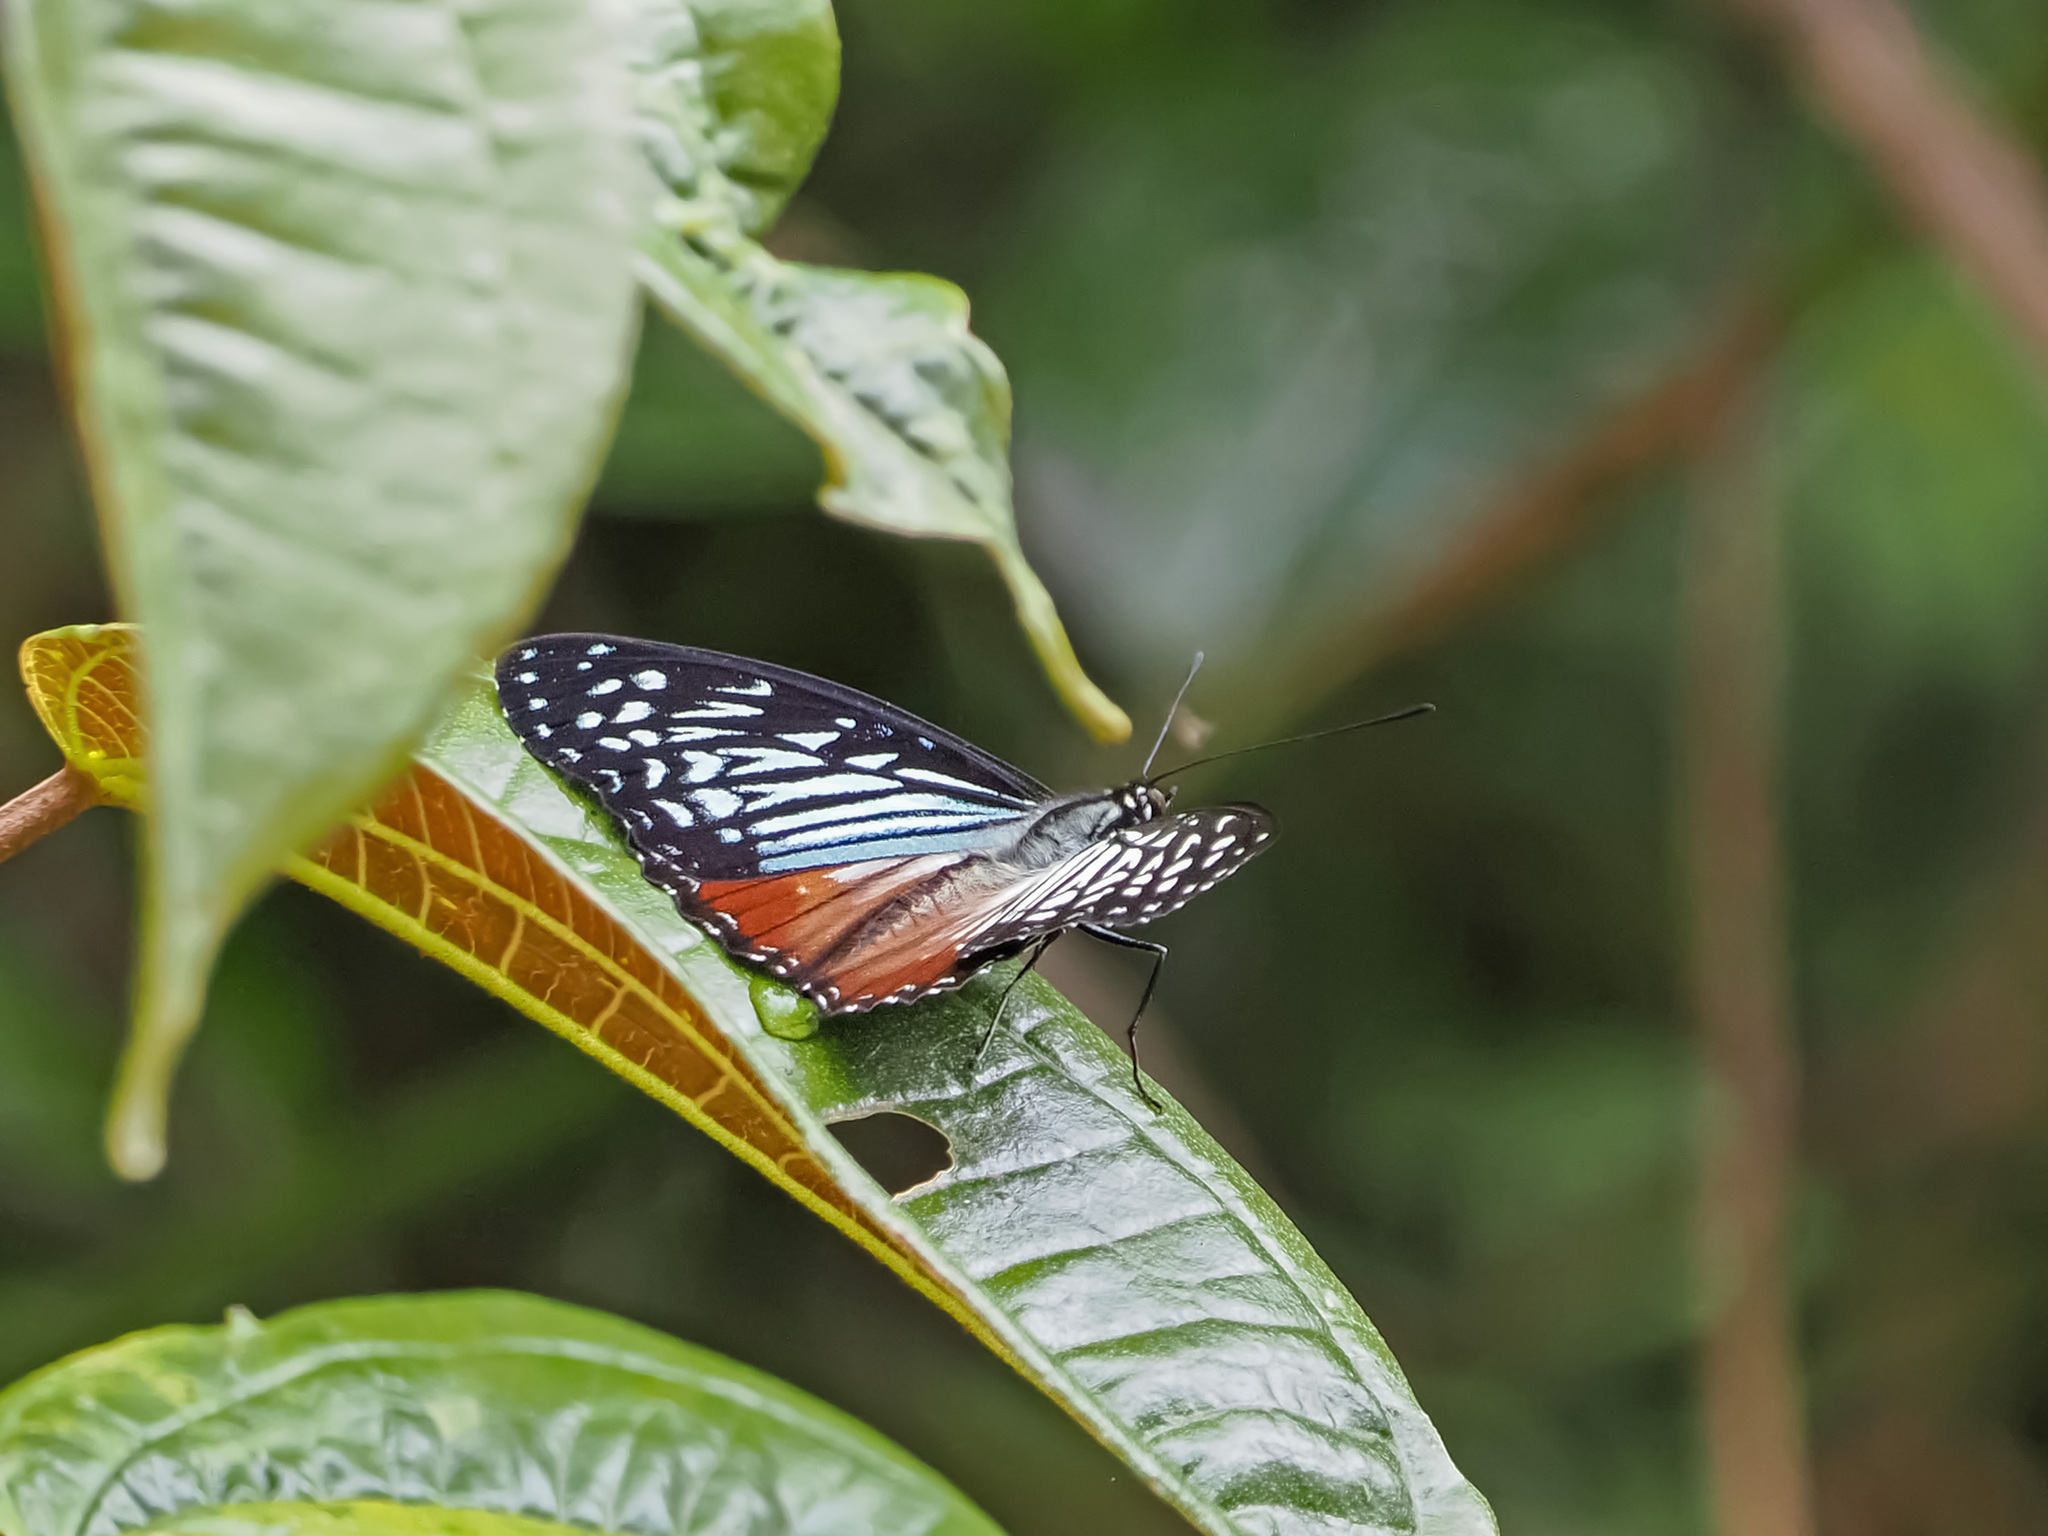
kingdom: Animalia
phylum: Arthropoda
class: Insecta
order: Lepidoptera
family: Nymphalidae
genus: Hestinalis
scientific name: Hestinalis nama
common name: Circe
